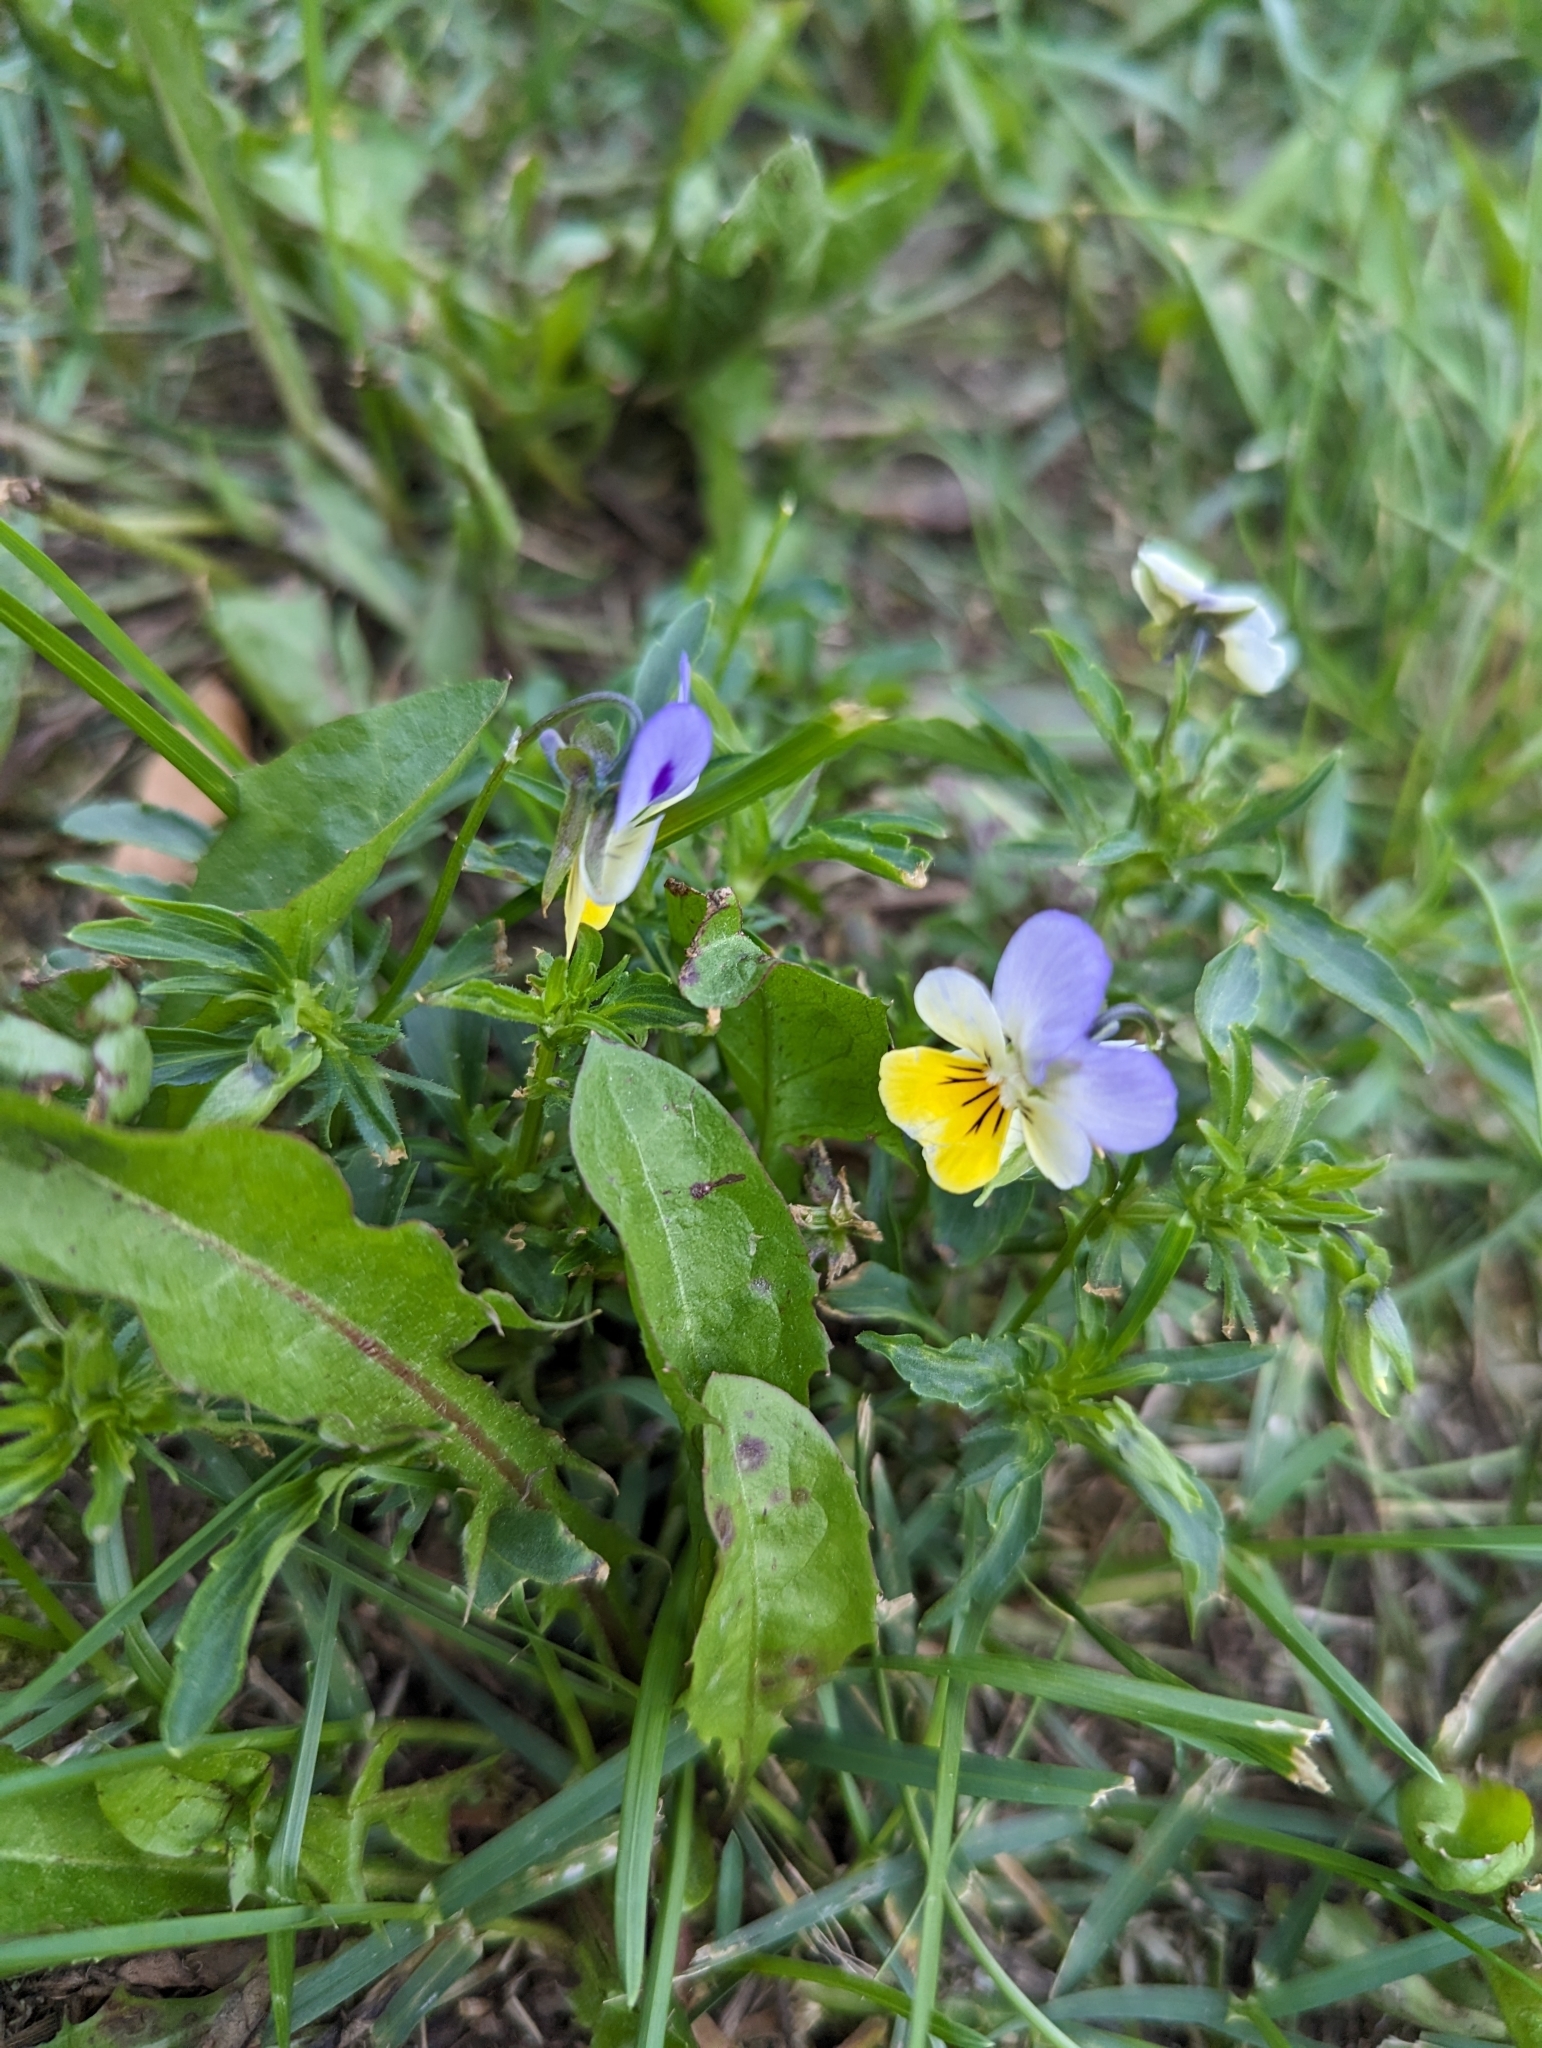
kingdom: Plantae
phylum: Tracheophyta
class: Magnoliopsida
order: Malpighiales
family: Violaceae
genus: Viola
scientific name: Viola tricolor
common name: Pansy
